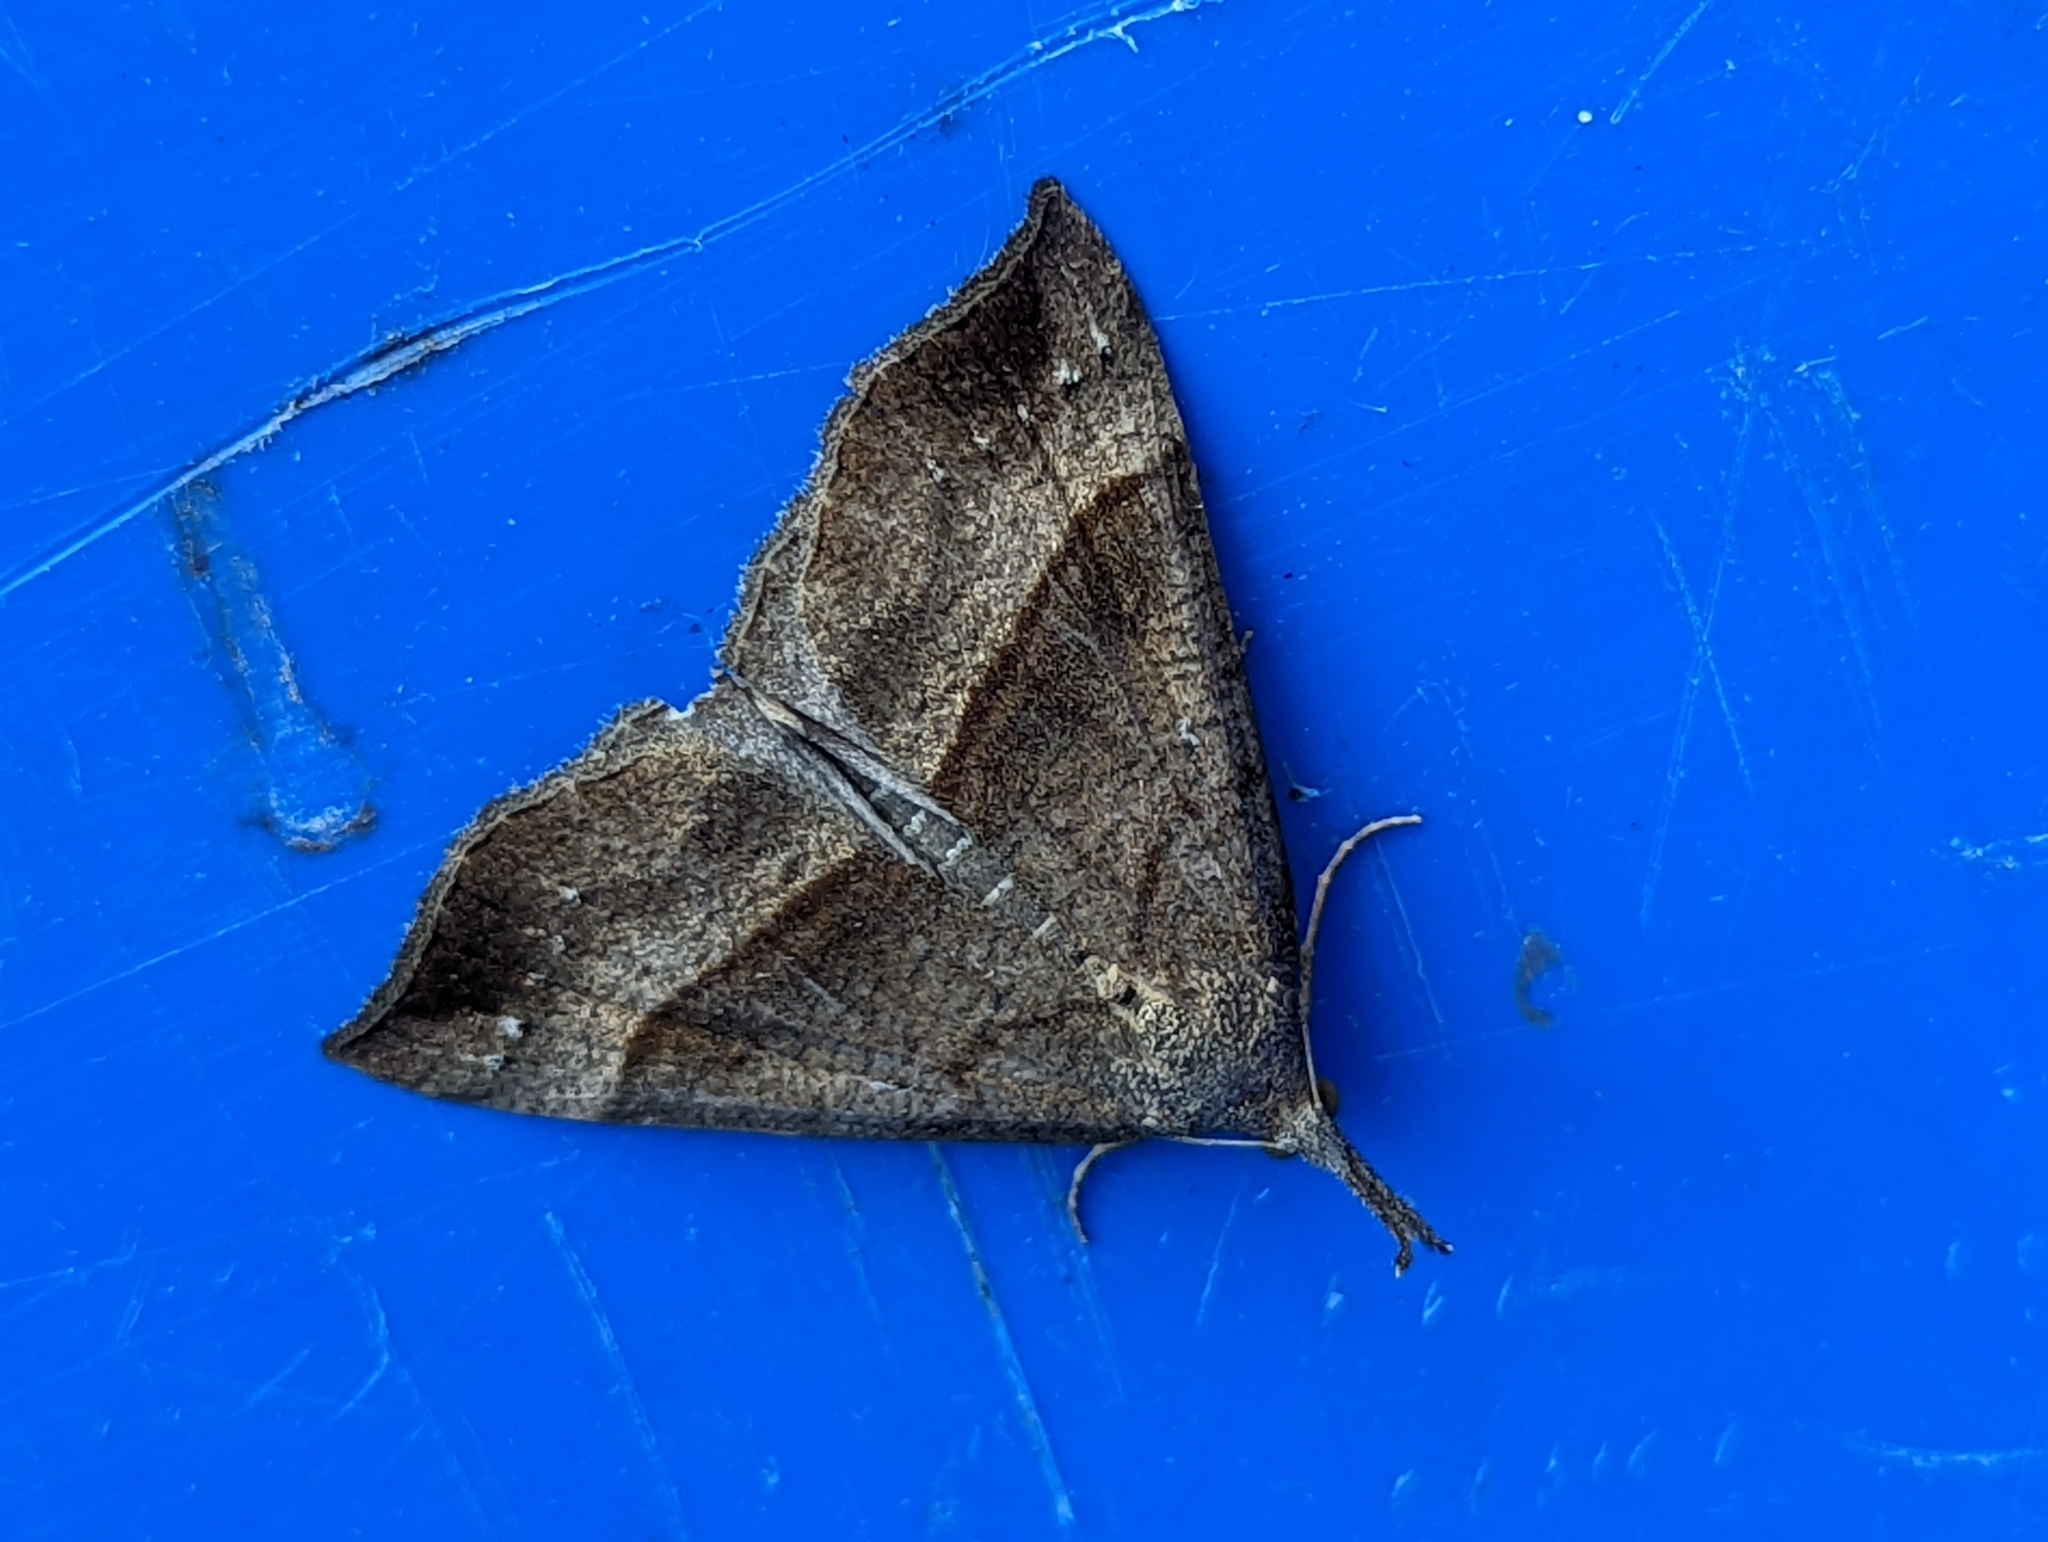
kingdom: Animalia
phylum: Arthropoda
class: Insecta
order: Lepidoptera
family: Erebidae
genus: Hypena
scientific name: Hypena proboscidalis
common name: Snout
